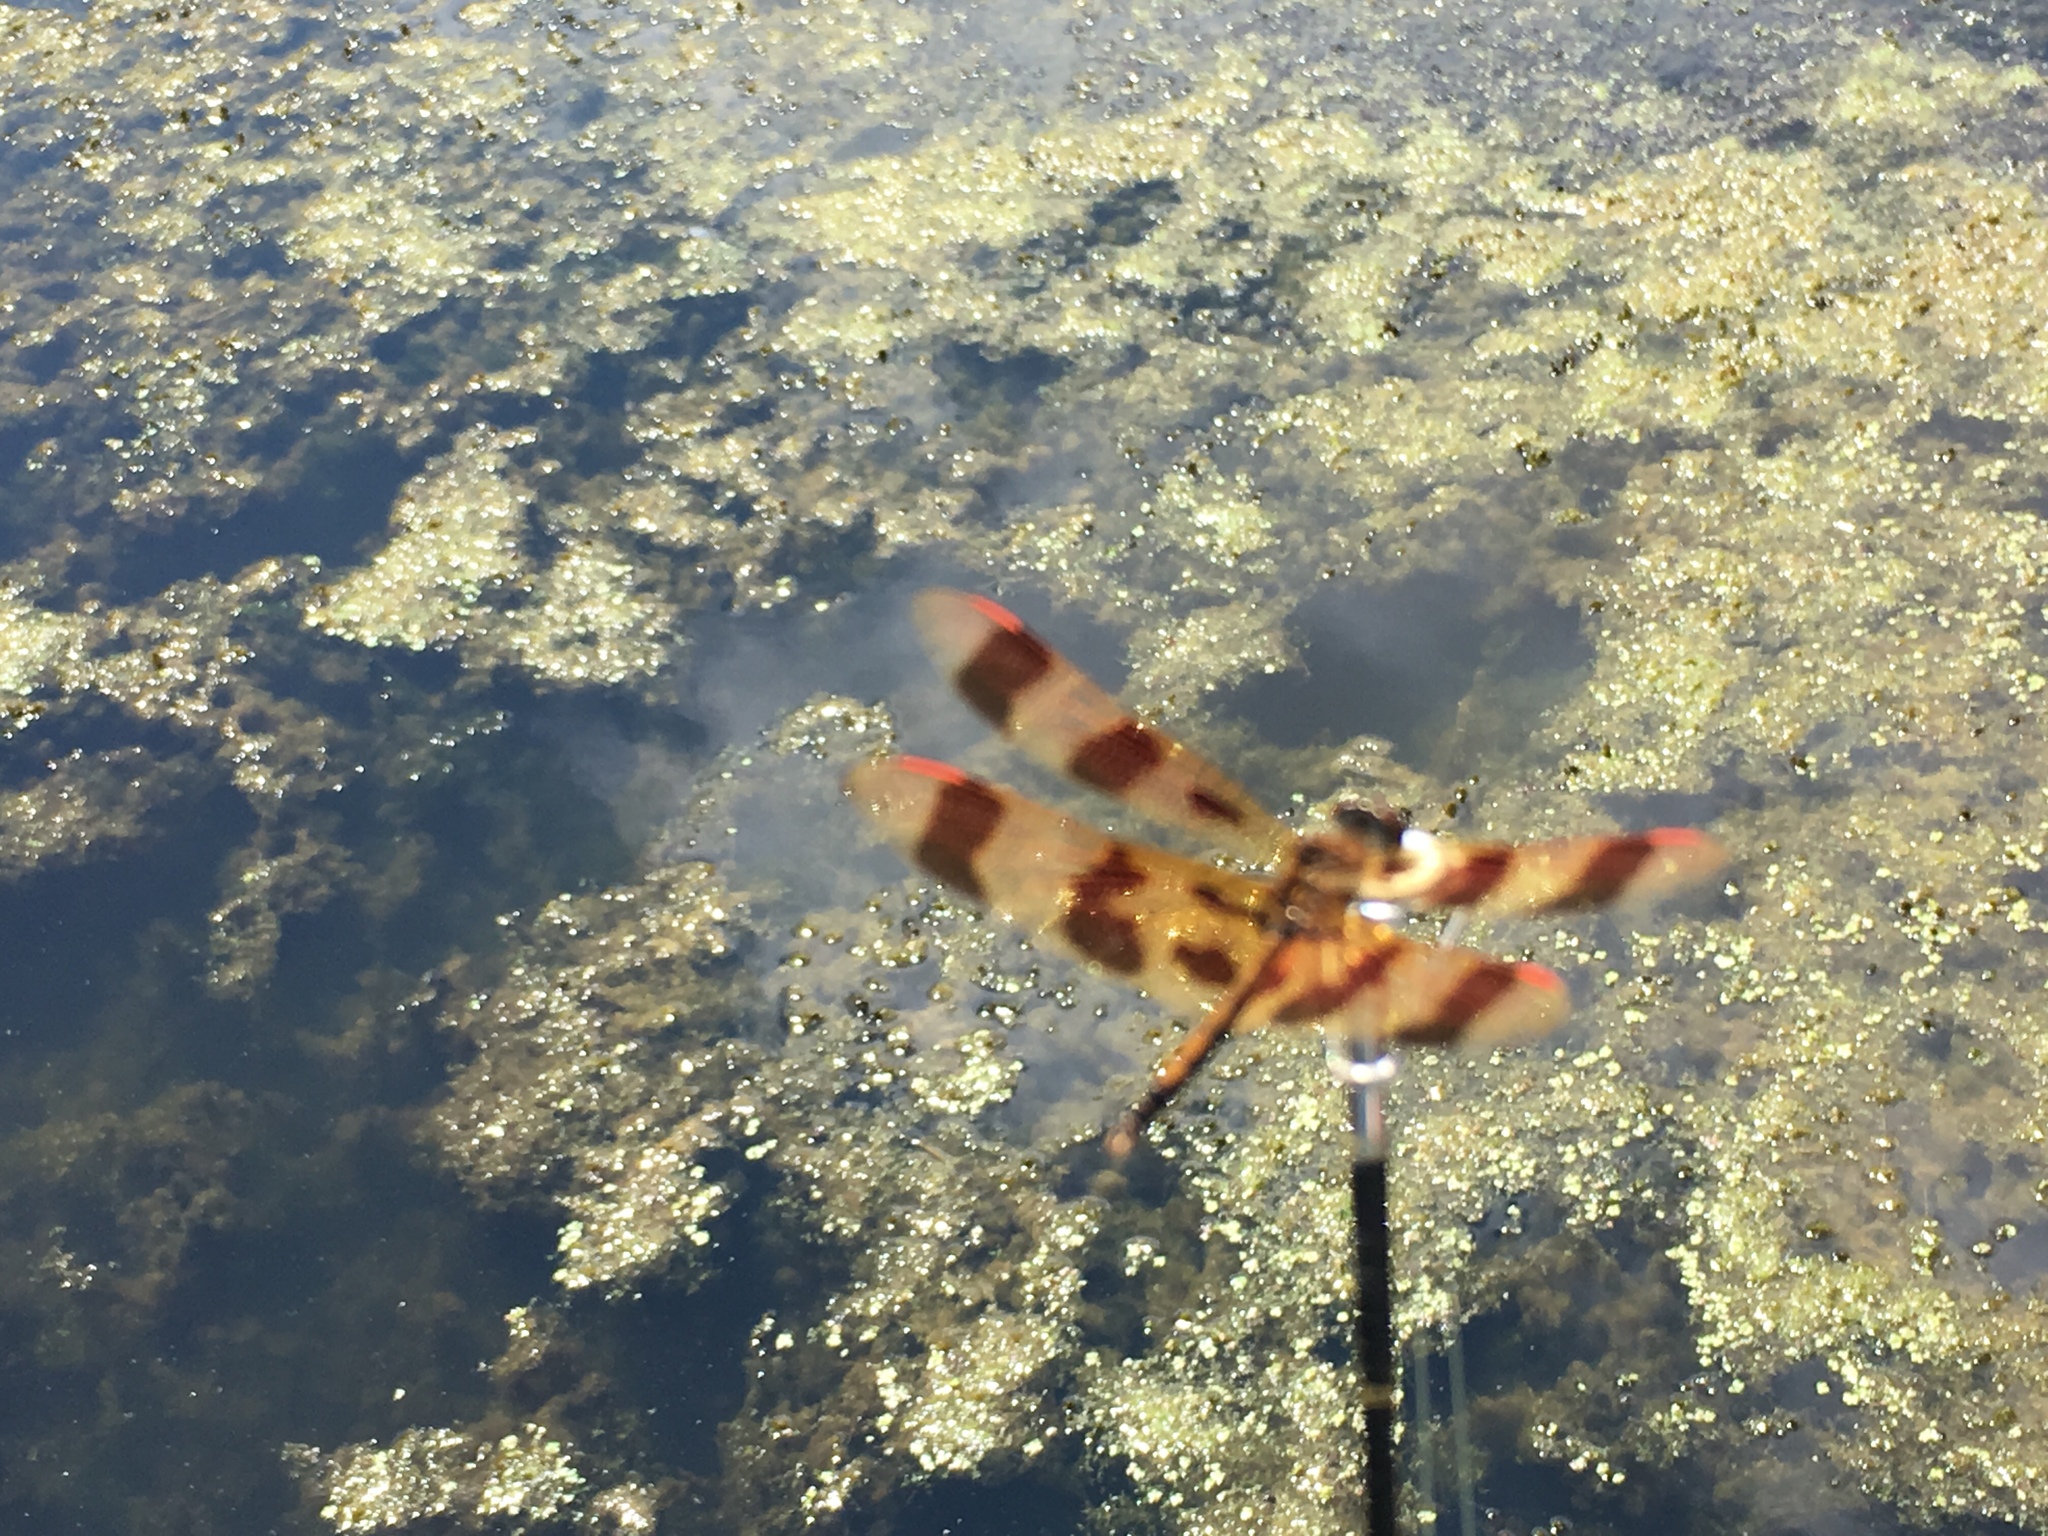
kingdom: Animalia
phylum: Arthropoda
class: Insecta
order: Odonata
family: Libellulidae
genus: Celithemis
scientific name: Celithemis eponina
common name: Halloween pennant
